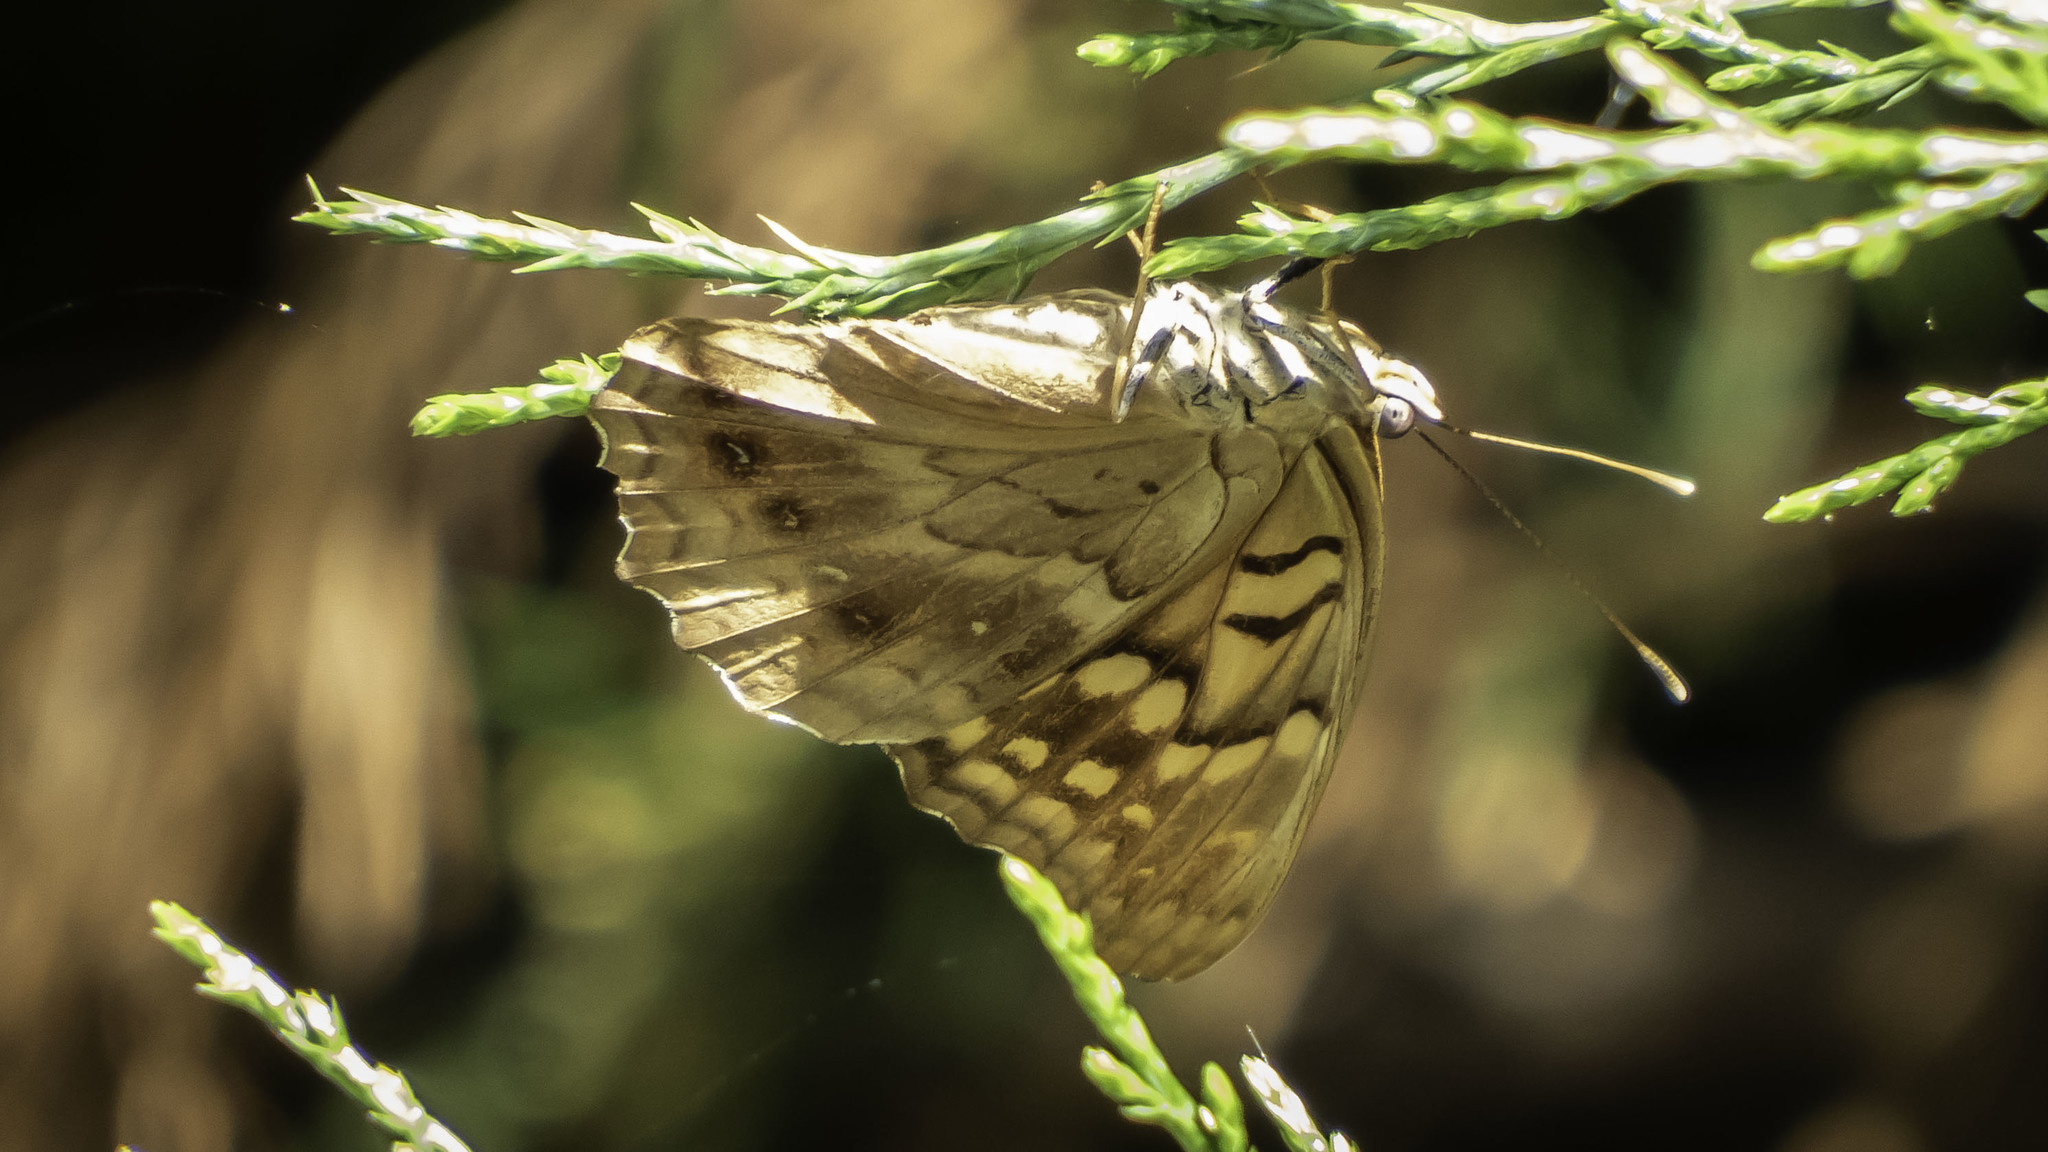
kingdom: Animalia
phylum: Arthropoda
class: Insecta
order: Lepidoptera
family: Nymphalidae
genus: Asterocampa
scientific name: Asterocampa clyton
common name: Tawny emperor
